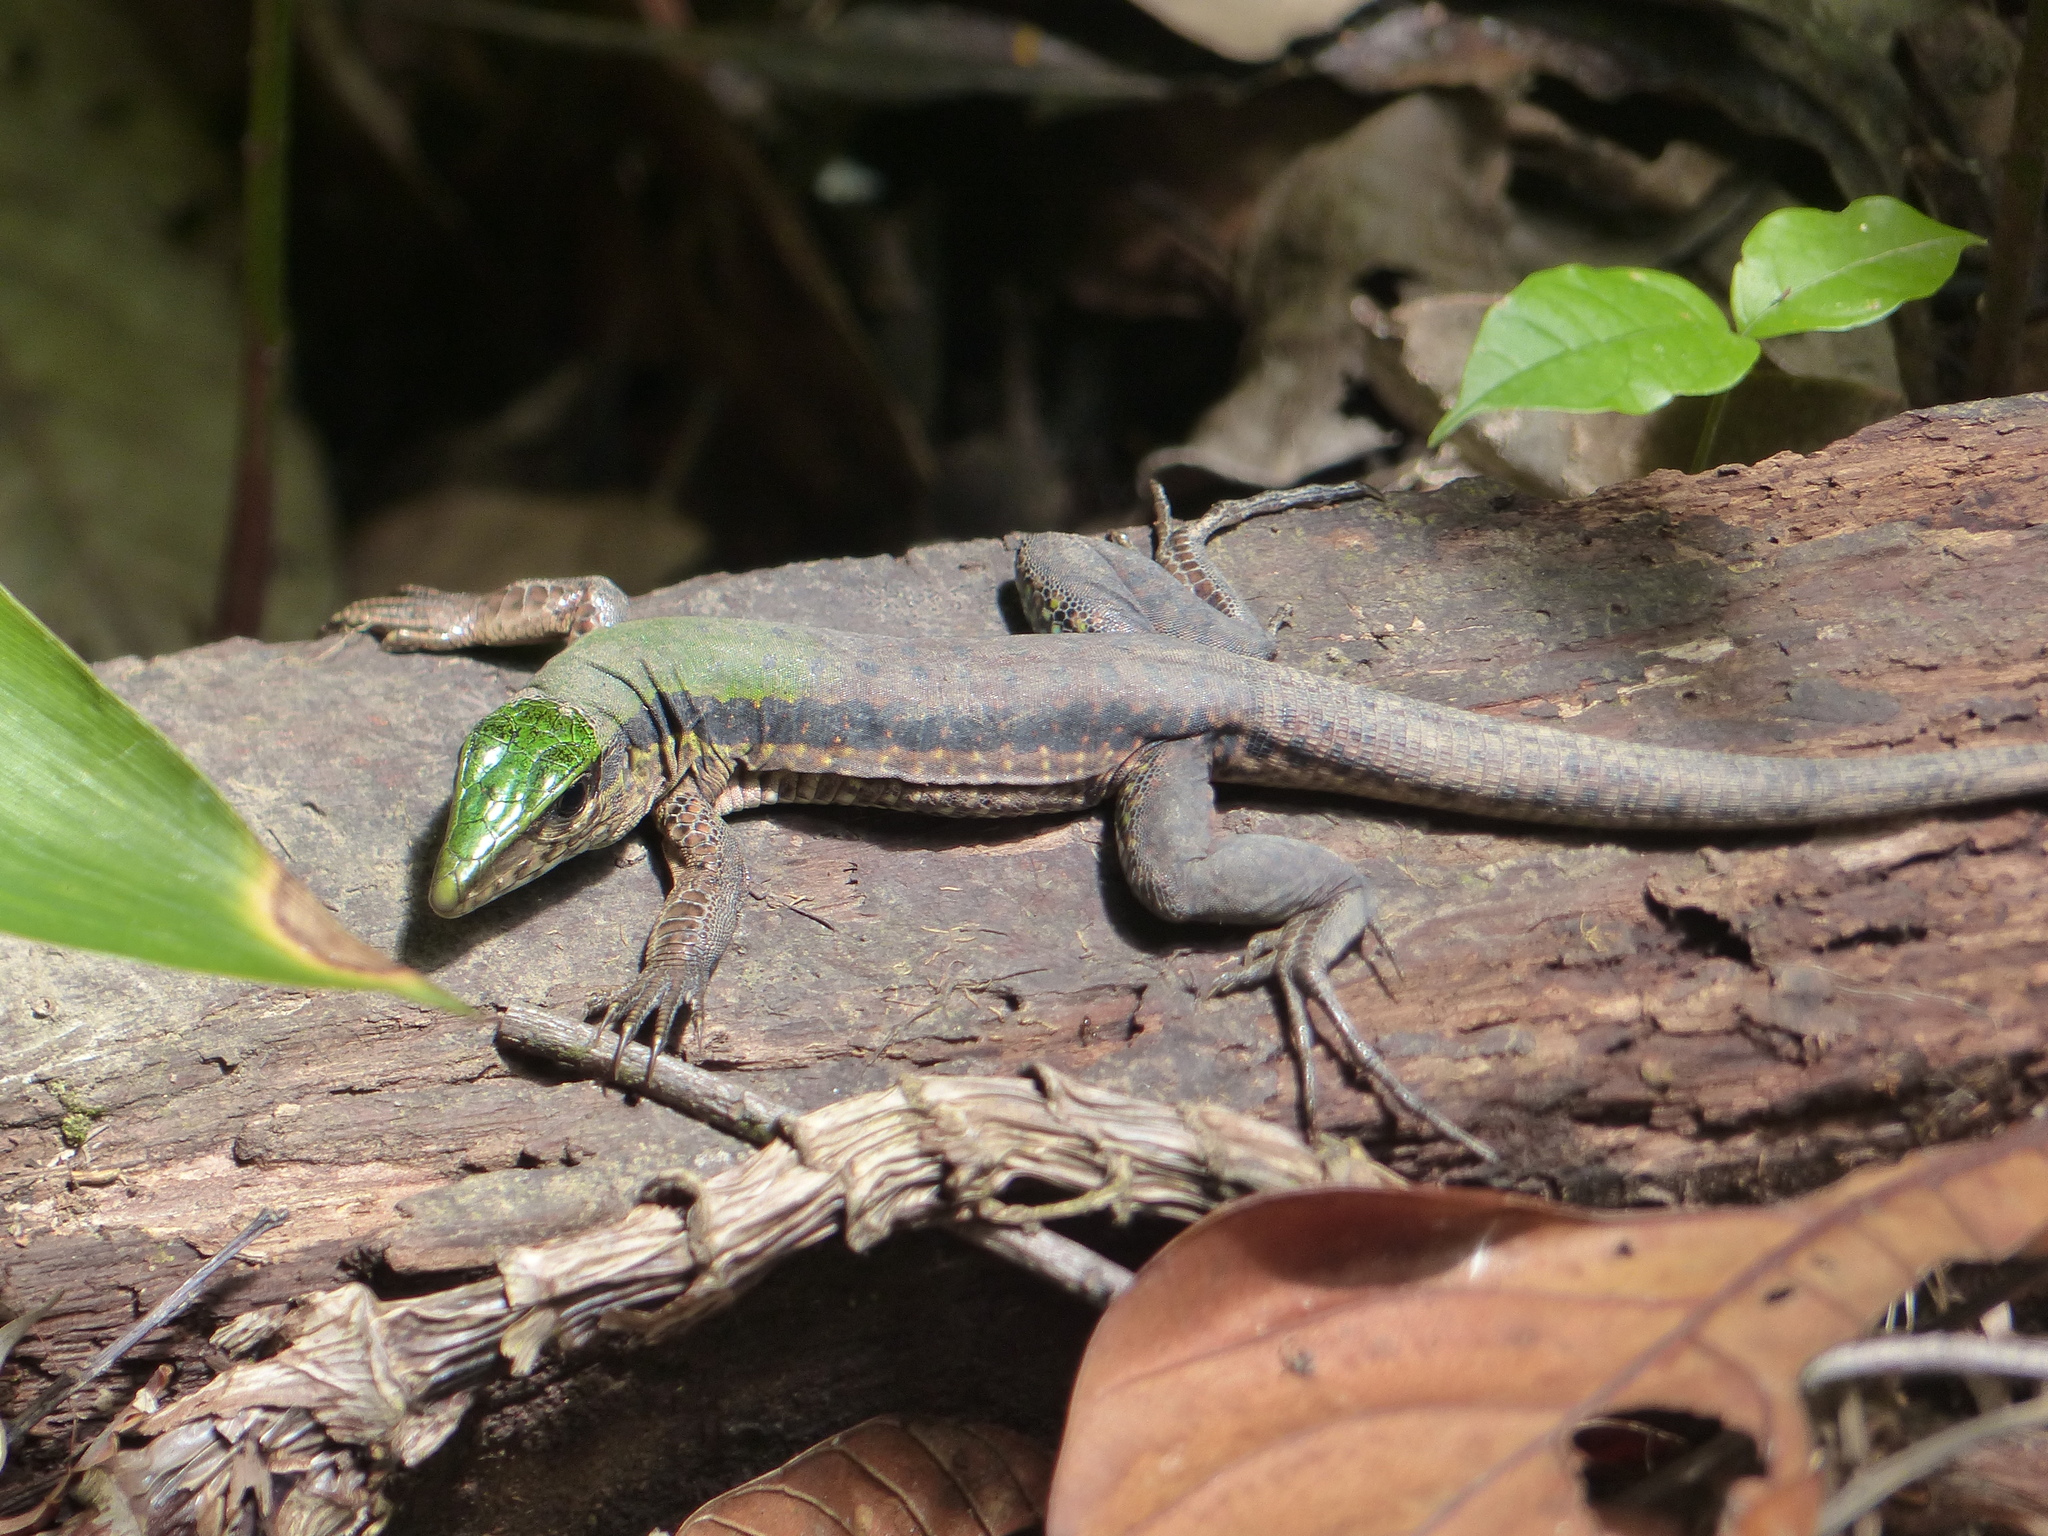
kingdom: Animalia
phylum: Chordata
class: Squamata
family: Teiidae
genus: Ameiva
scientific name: Ameiva ameiva
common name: Giant ameiva
